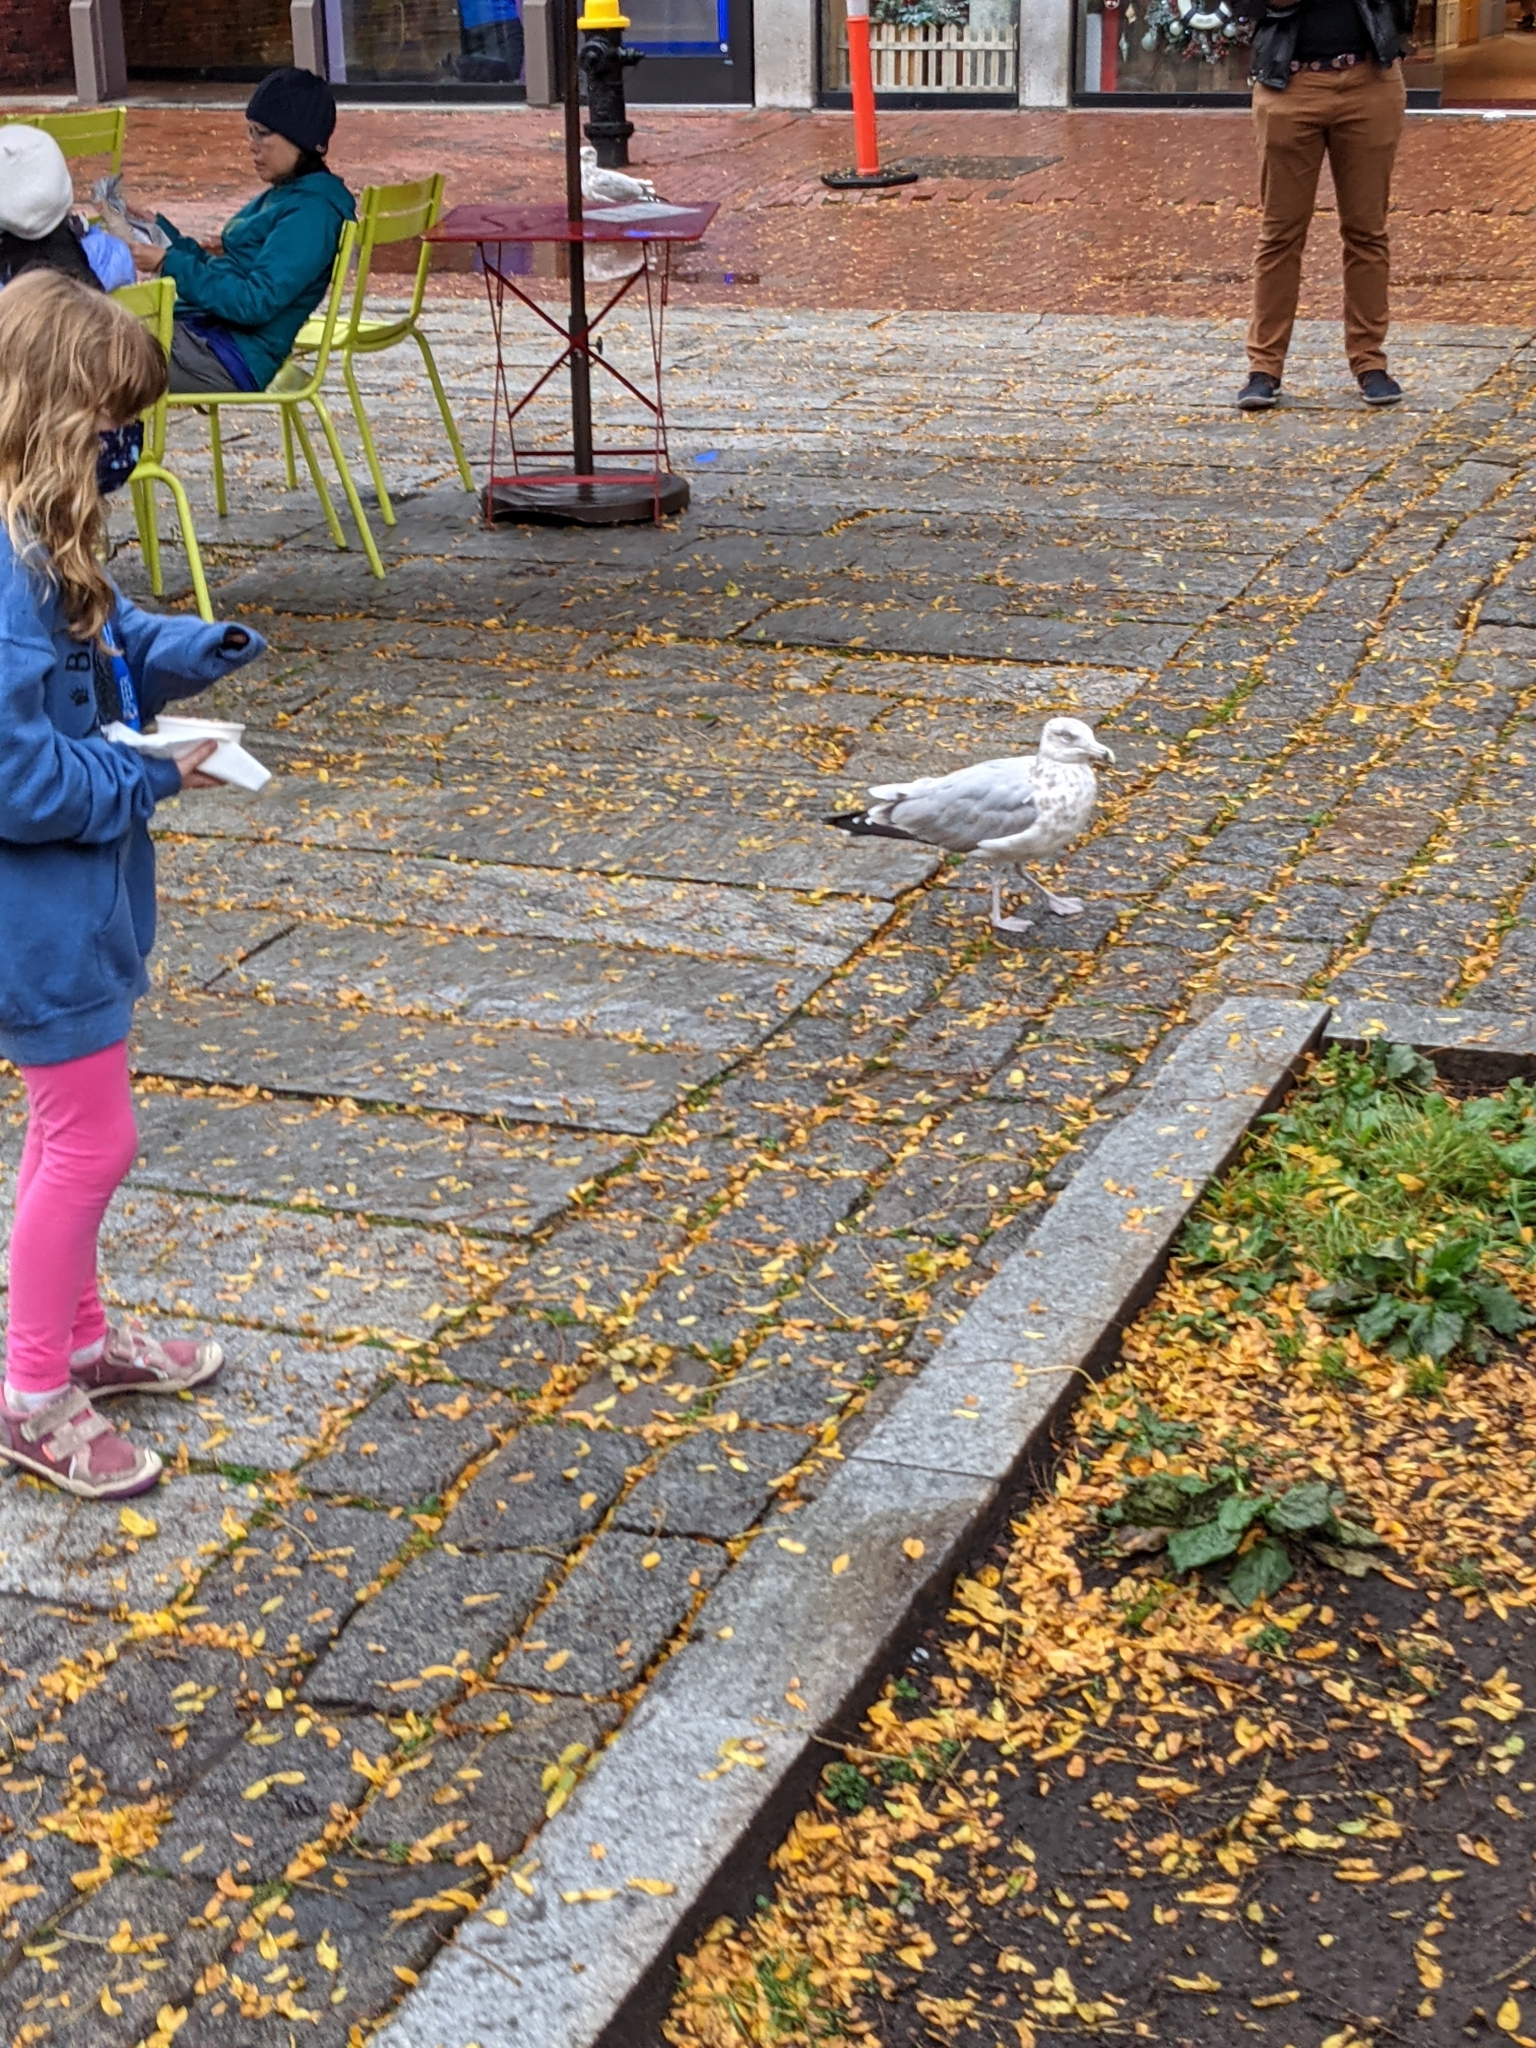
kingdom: Animalia
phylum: Chordata
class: Aves
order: Charadriiformes
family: Laridae
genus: Larus
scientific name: Larus argentatus
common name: Herring gull
